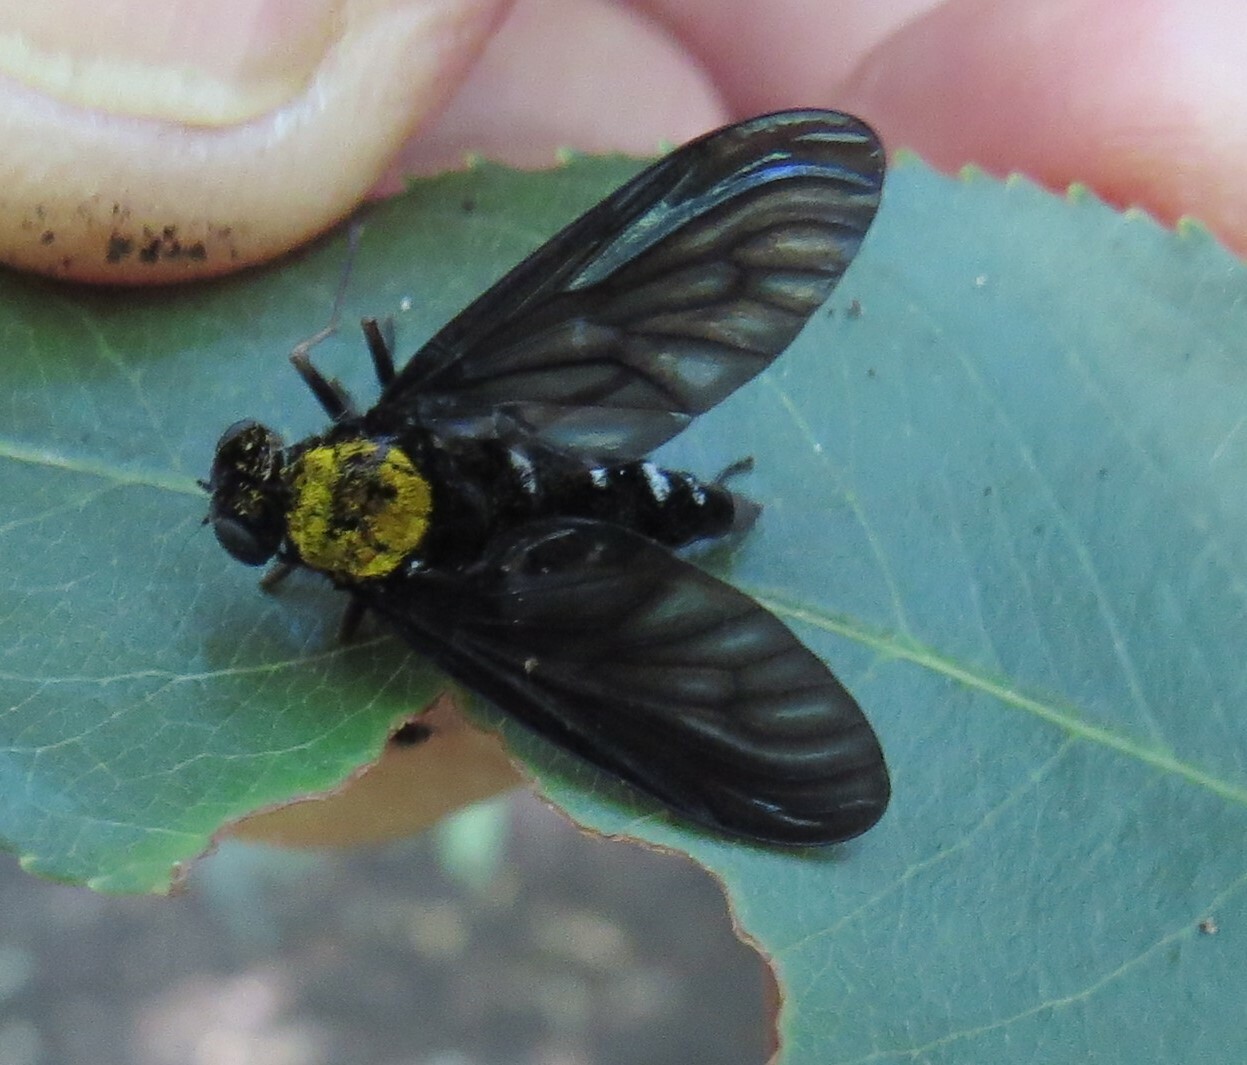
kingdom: Animalia
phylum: Arthropoda
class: Insecta
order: Diptera
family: Rhagionidae
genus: Chrysopilus
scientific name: Chrysopilus thoracicus
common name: Golden-backed snipe fly
